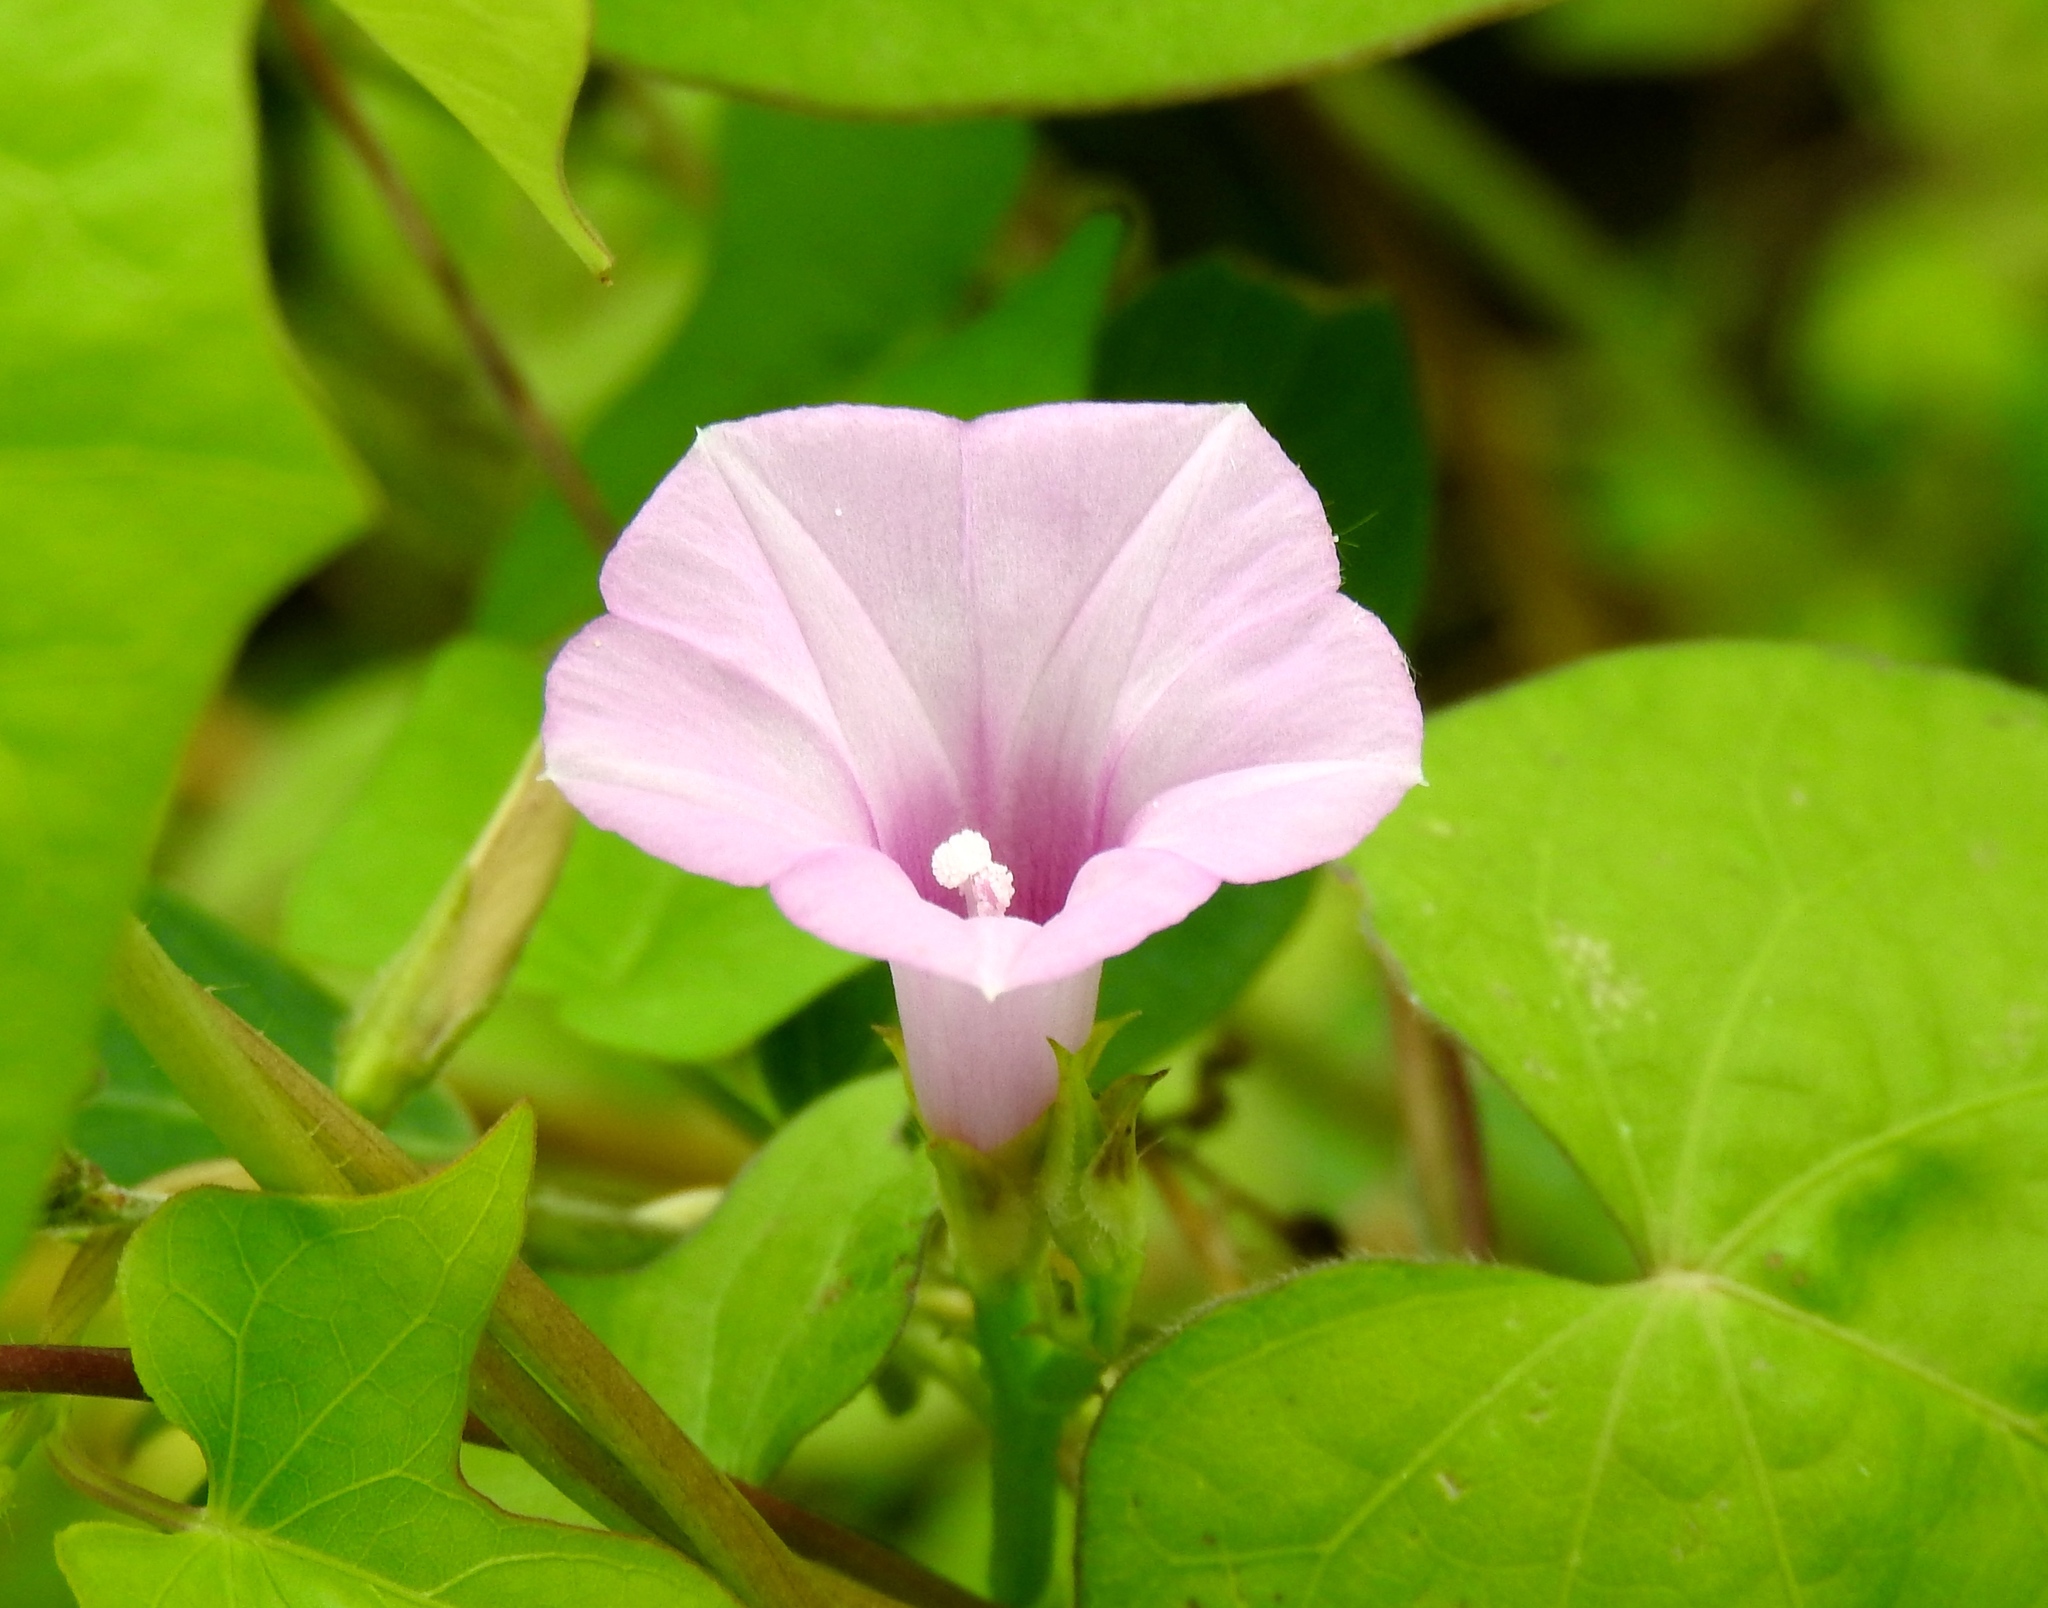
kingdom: Plantae
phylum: Tracheophyta
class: Magnoliopsida
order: Solanales
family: Convolvulaceae
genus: Ipomoea
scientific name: Ipomoea triloba
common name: Little-bell
